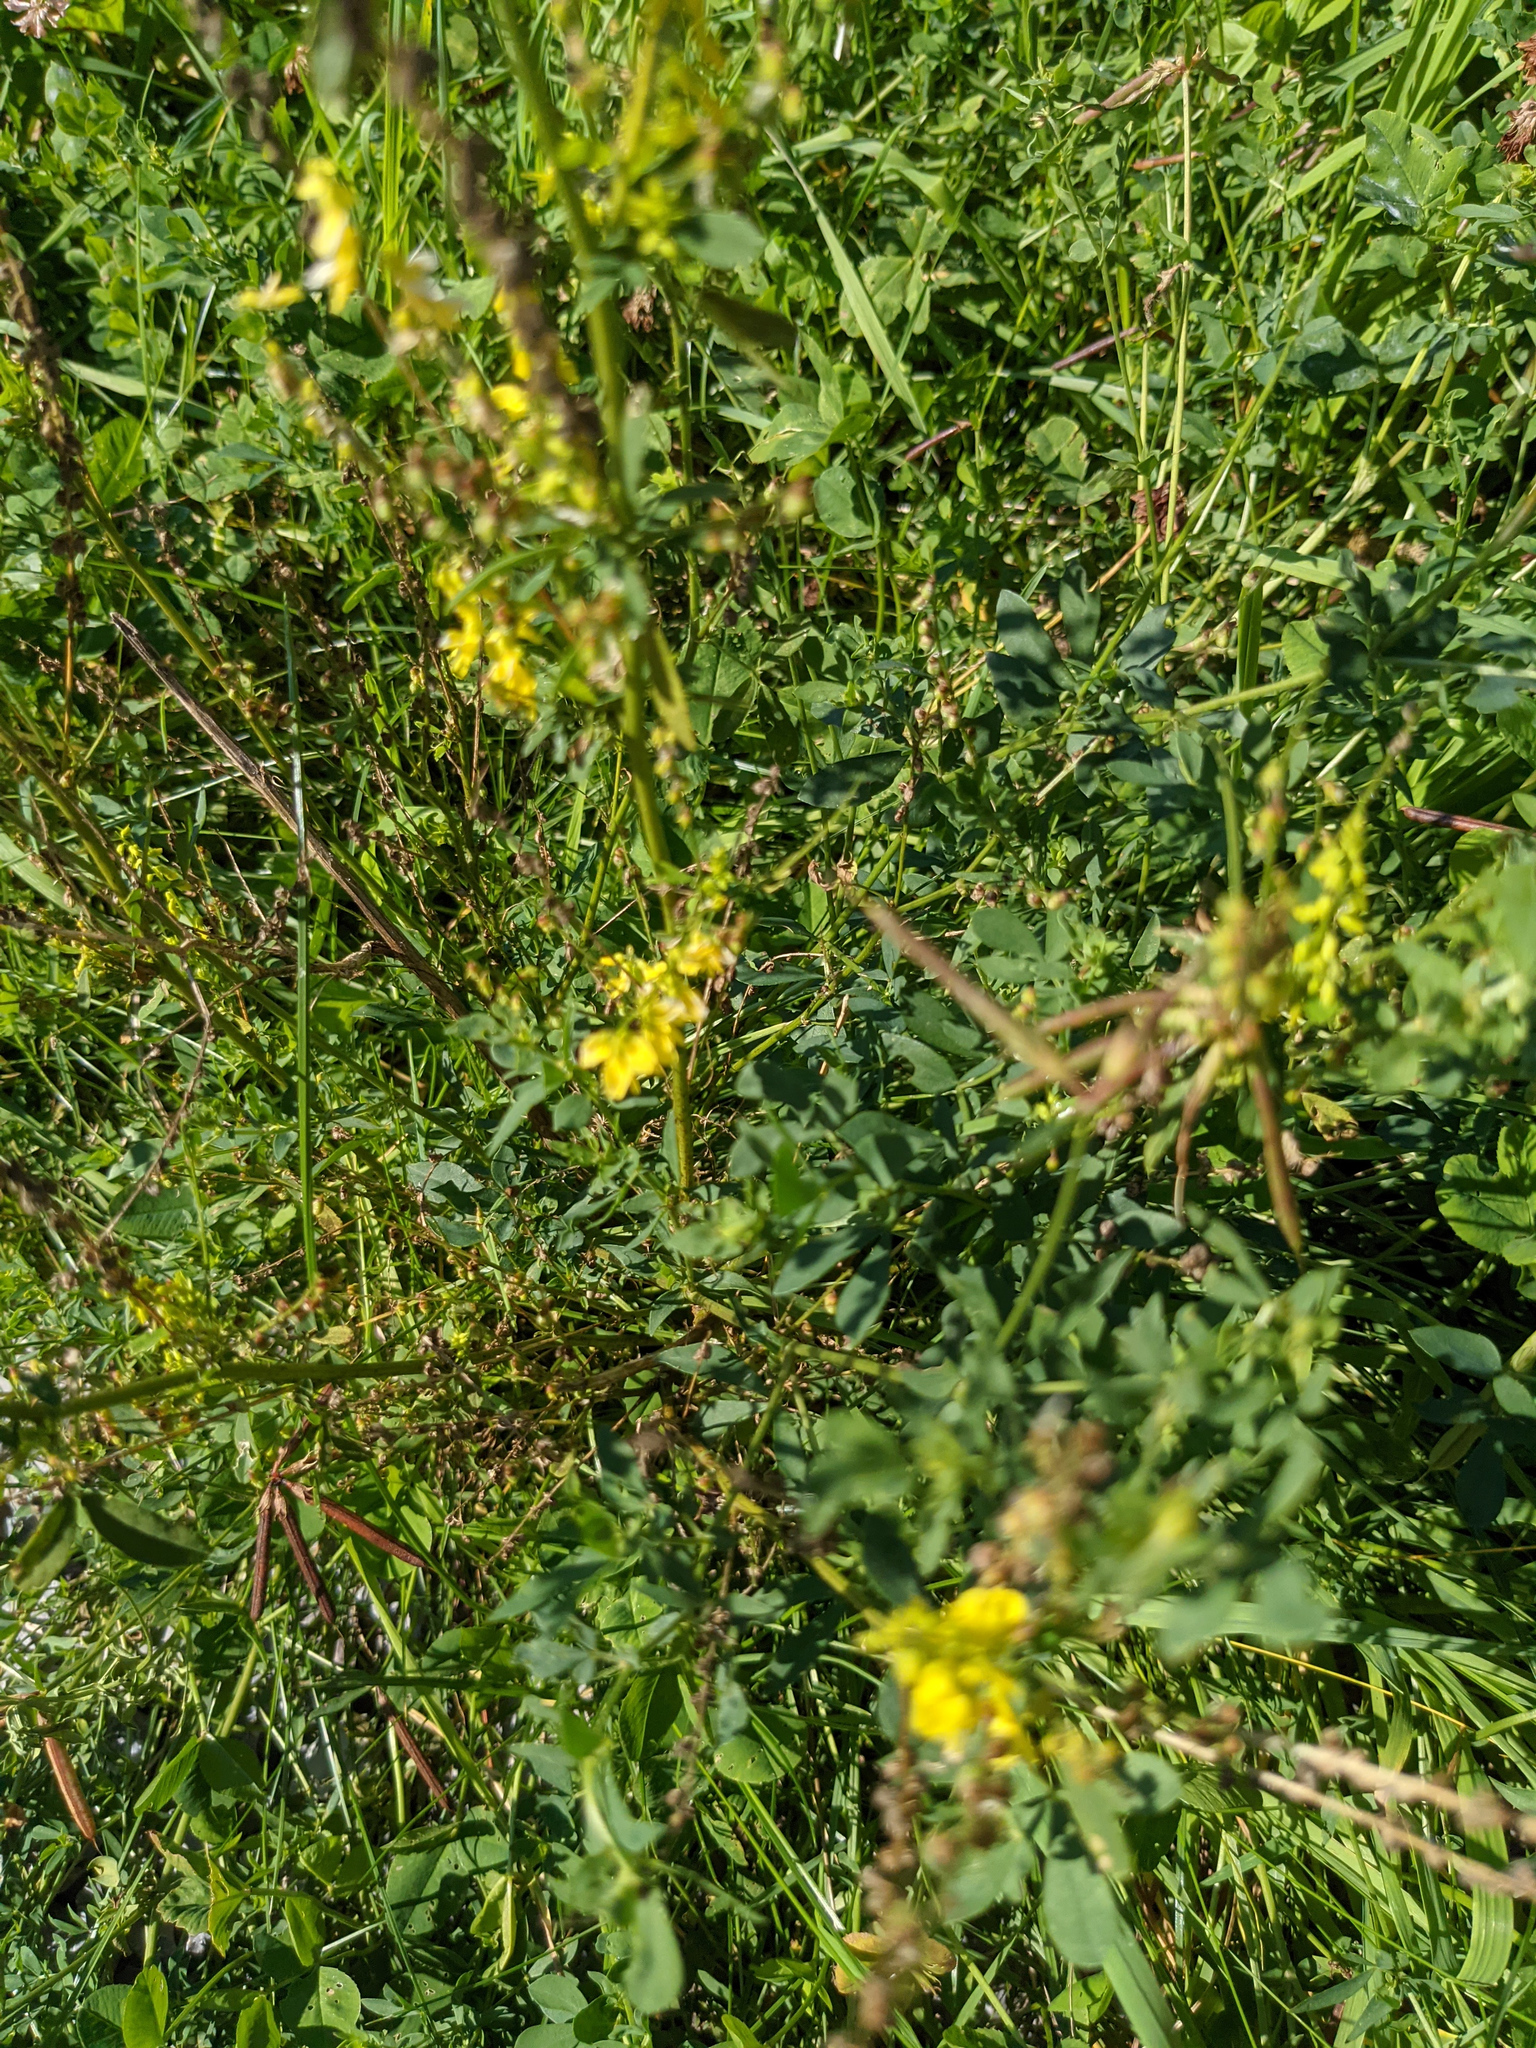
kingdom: Plantae
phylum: Tracheophyta
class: Magnoliopsida
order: Fabales
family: Fabaceae
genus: Melilotus
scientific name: Melilotus officinalis
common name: Sweetclover
